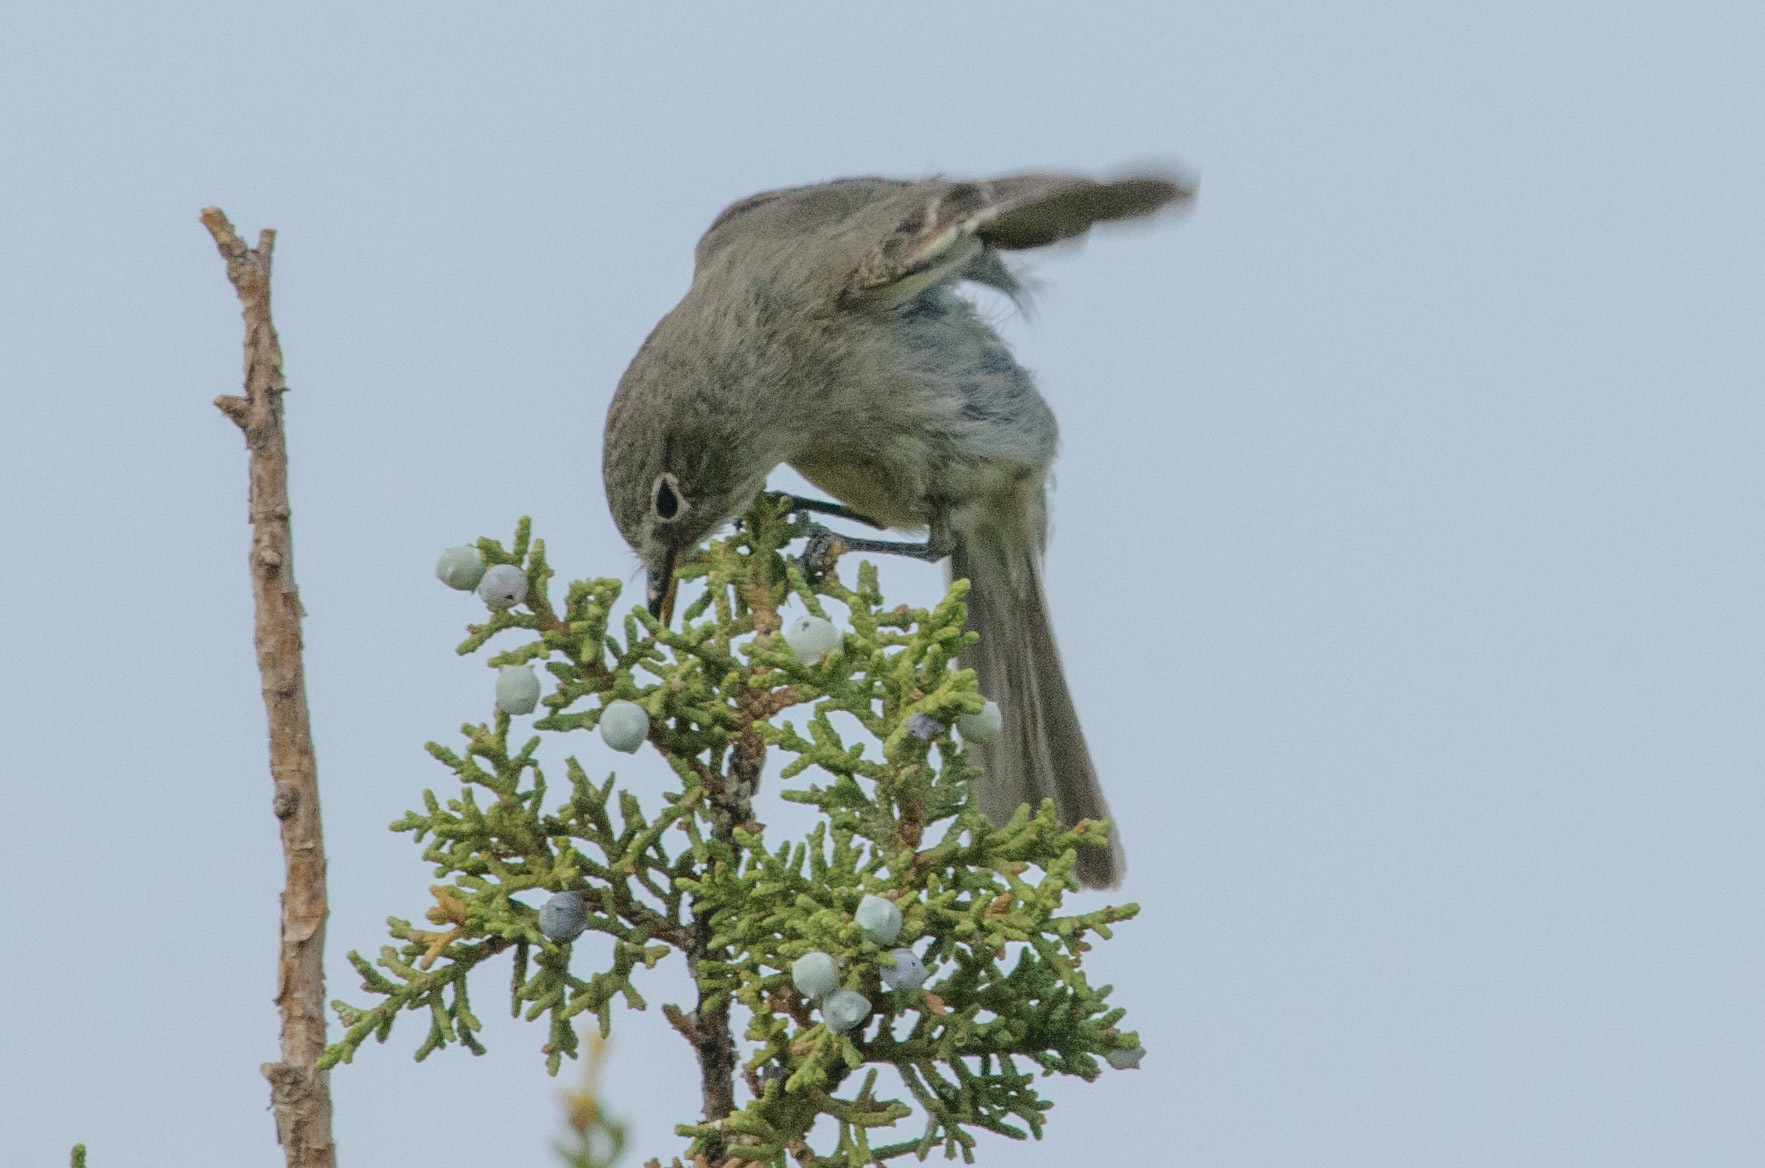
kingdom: Animalia
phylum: Chordata
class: Aves
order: Passeriformes
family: Tyrannidae
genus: Empidonax
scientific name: Empidonax wrightii
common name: Gray flycatcher
